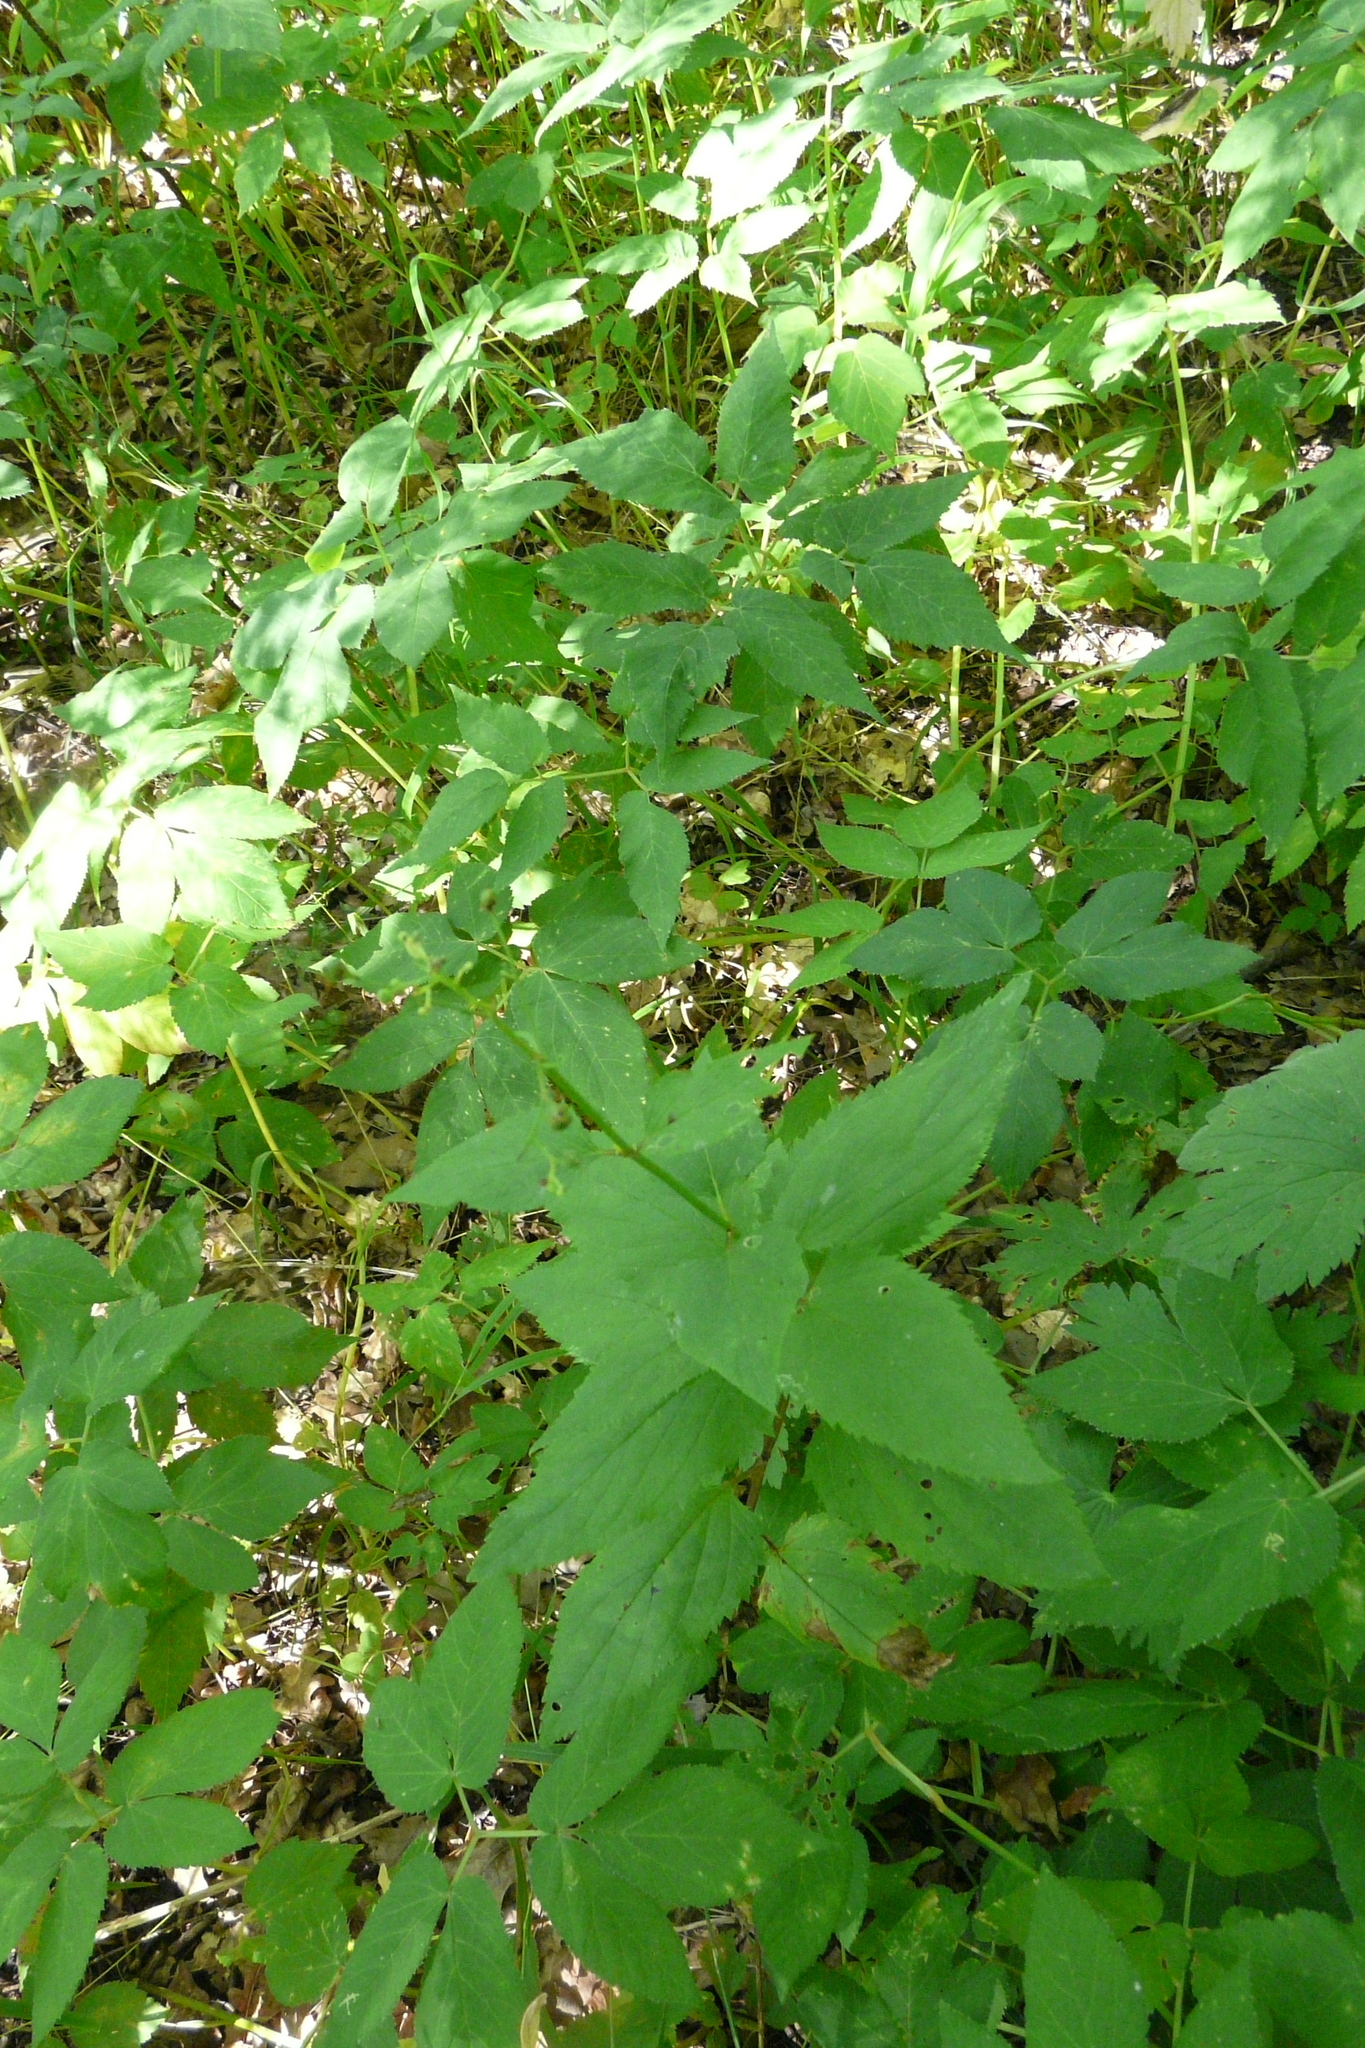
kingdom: Plantae
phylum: Tracheophyta
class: Magnoliopsida
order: Lamiales
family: Scrophulariaceae
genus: Scrophularia
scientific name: Scrophularia nodosa
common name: Common figwort
